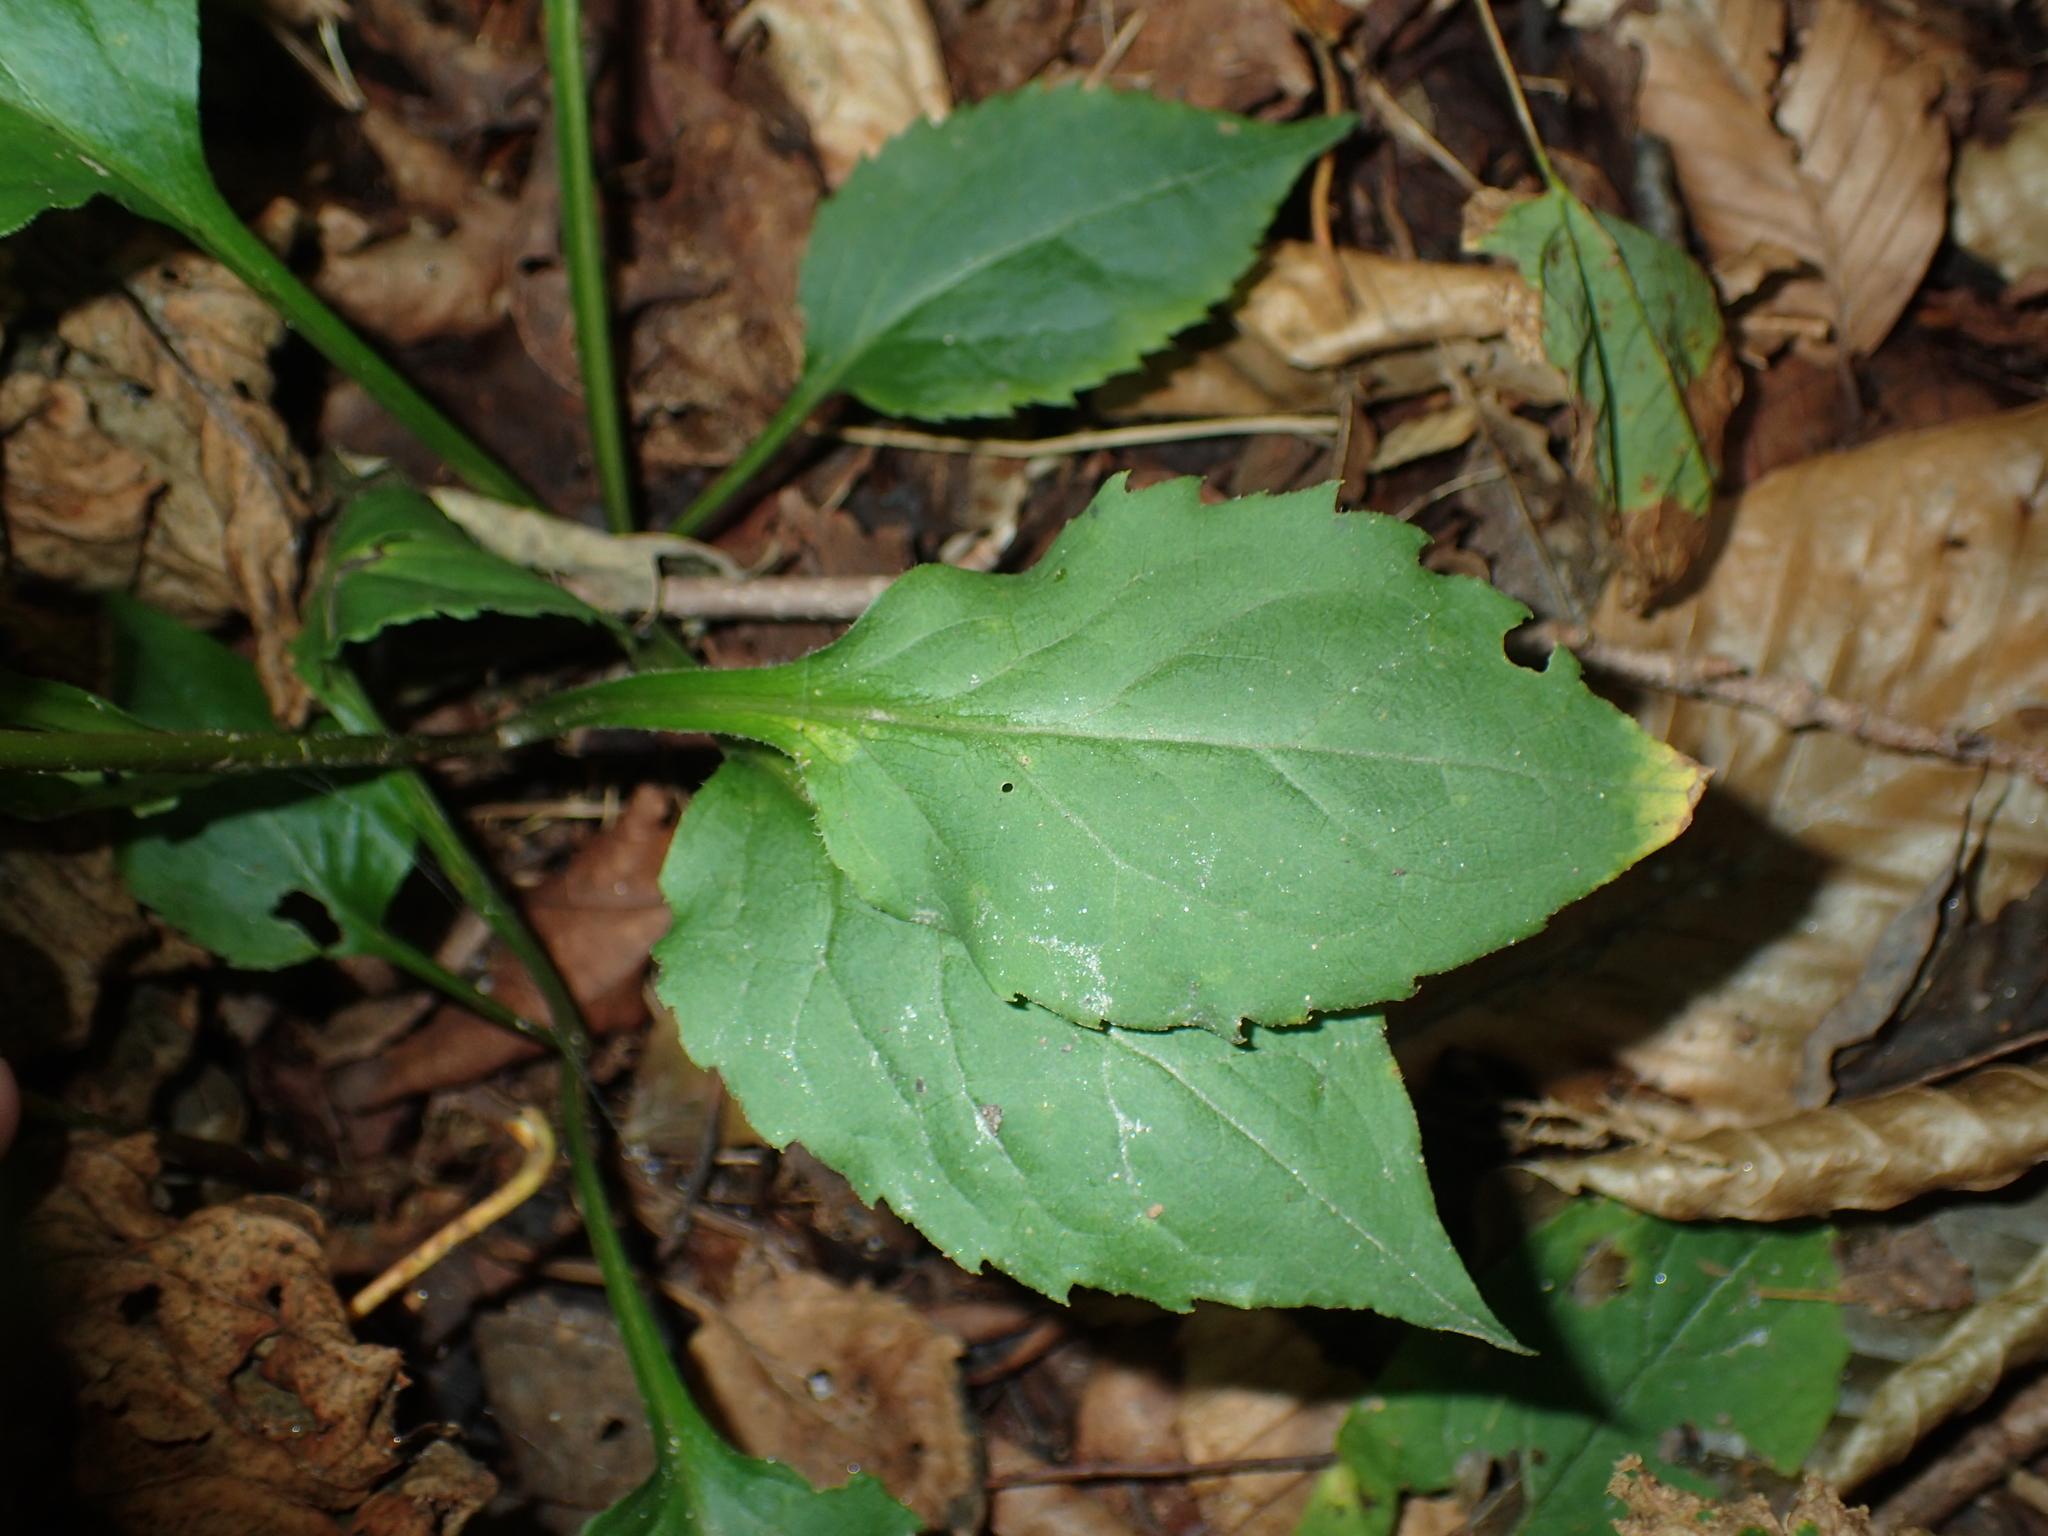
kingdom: Plantae
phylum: Tracheophyta
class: Magnoliopsida
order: Asterales
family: Asteraceae
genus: Solidago
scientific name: Solidago macrophylla
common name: Large-leaved goldenrod
